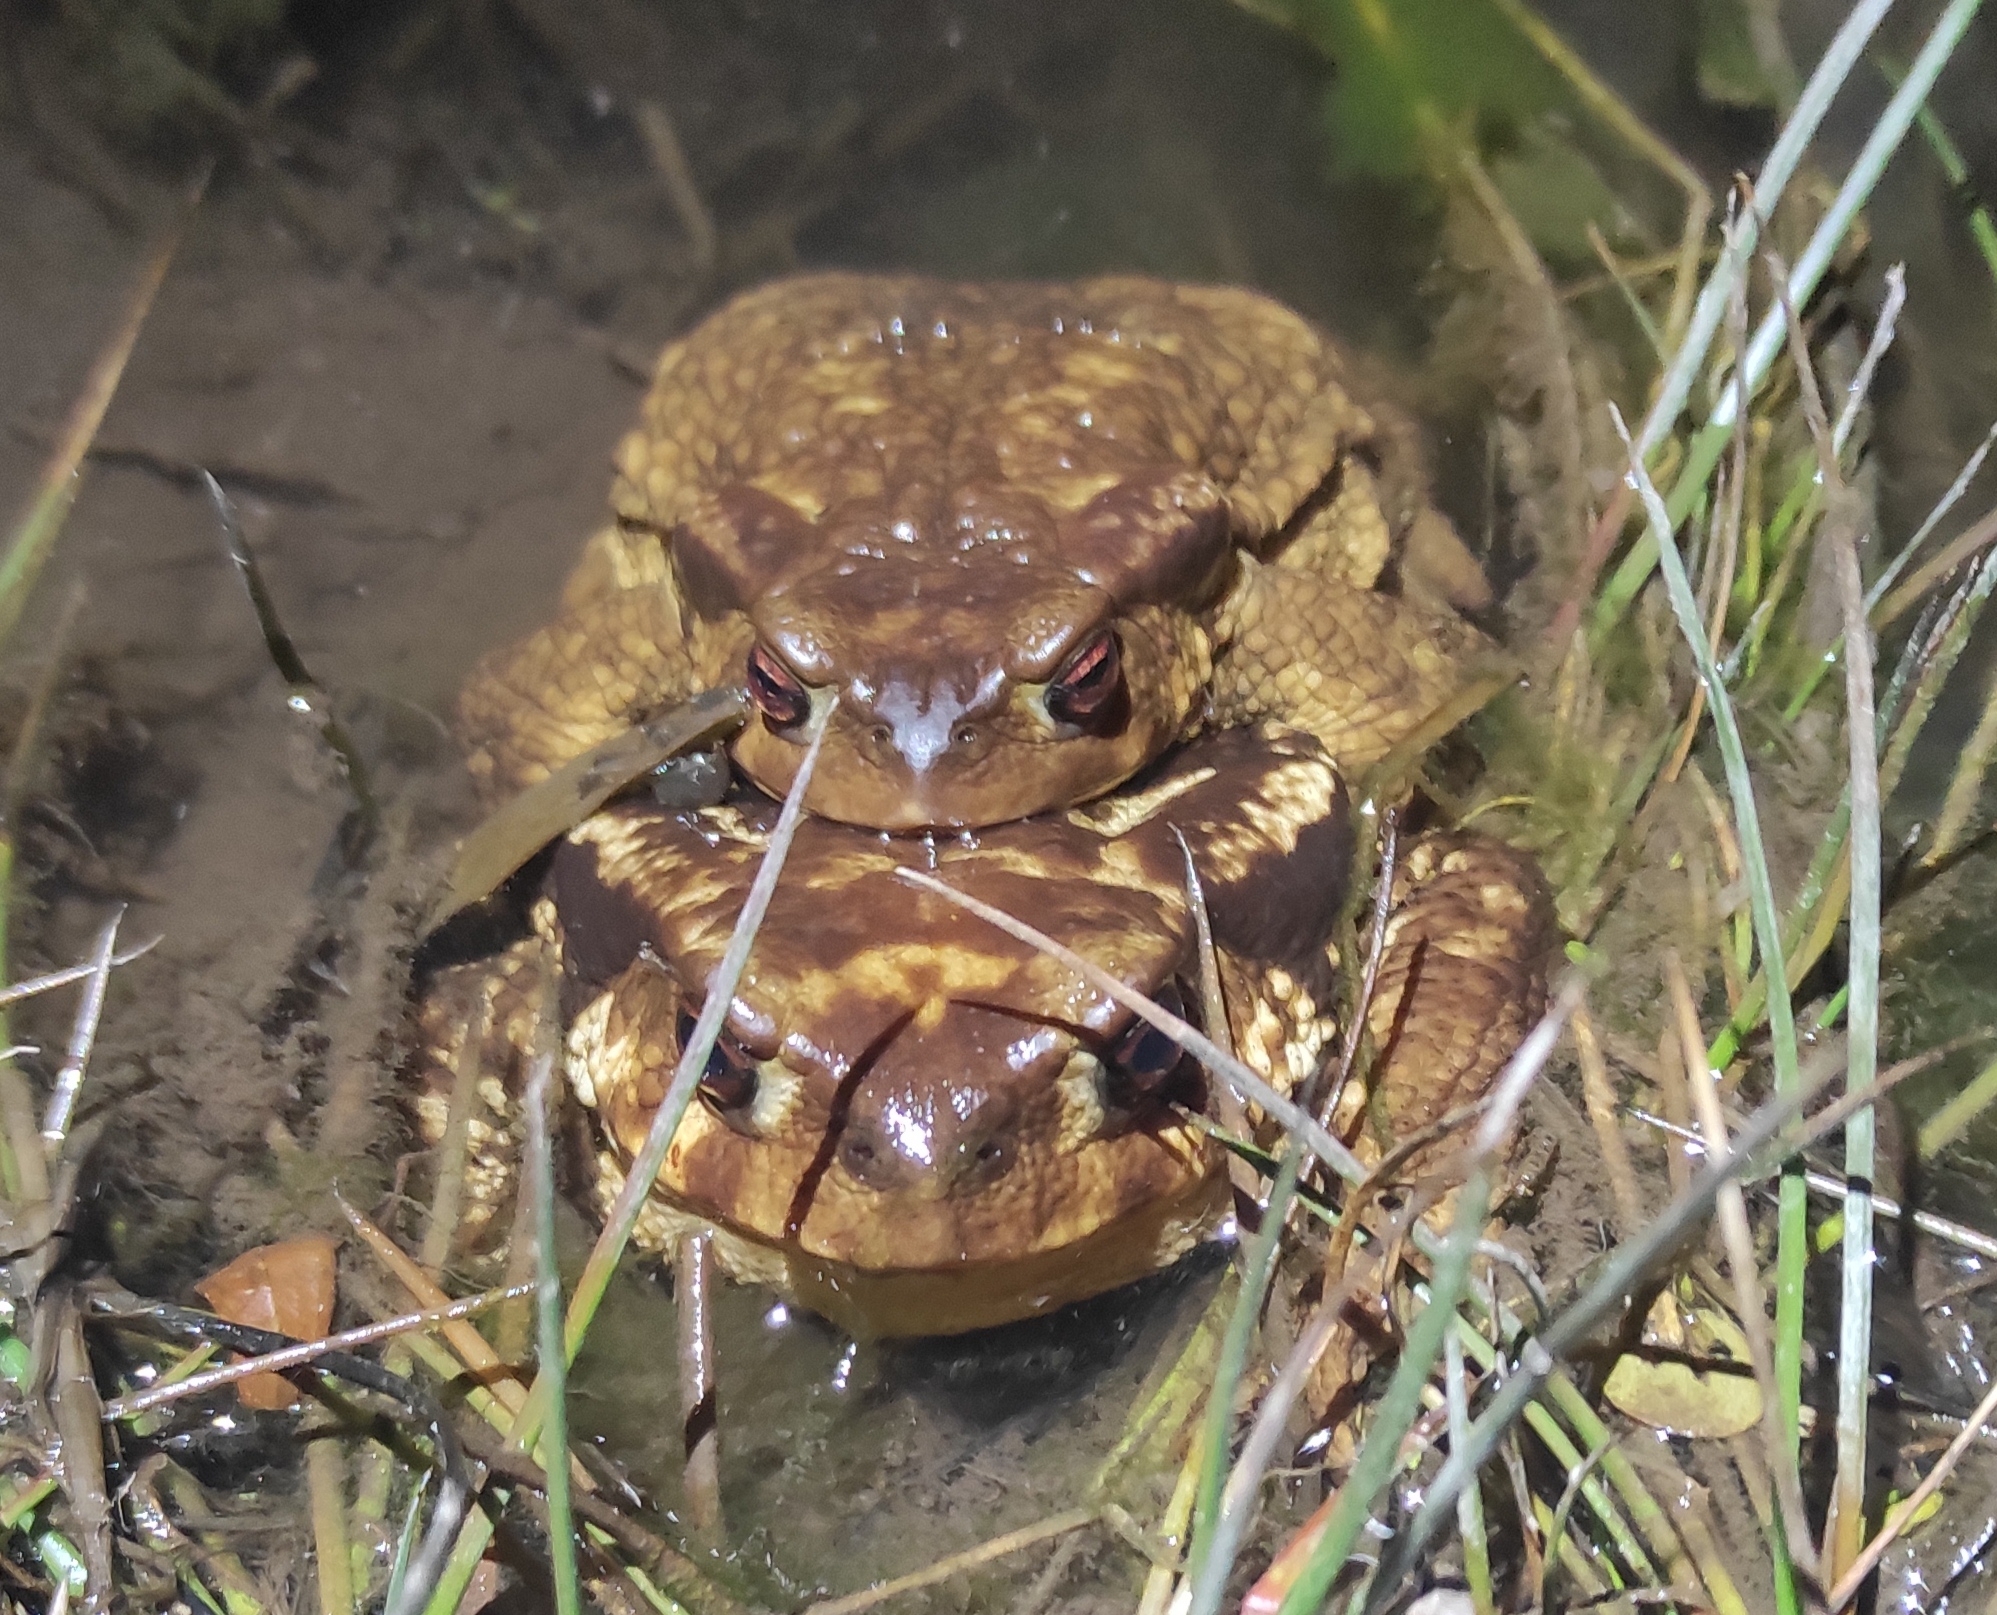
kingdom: Animalia
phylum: Chordata
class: Amphibia
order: Anura
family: Bufonidae
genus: Bufo
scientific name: Bufo spinosus
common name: Western common toad
